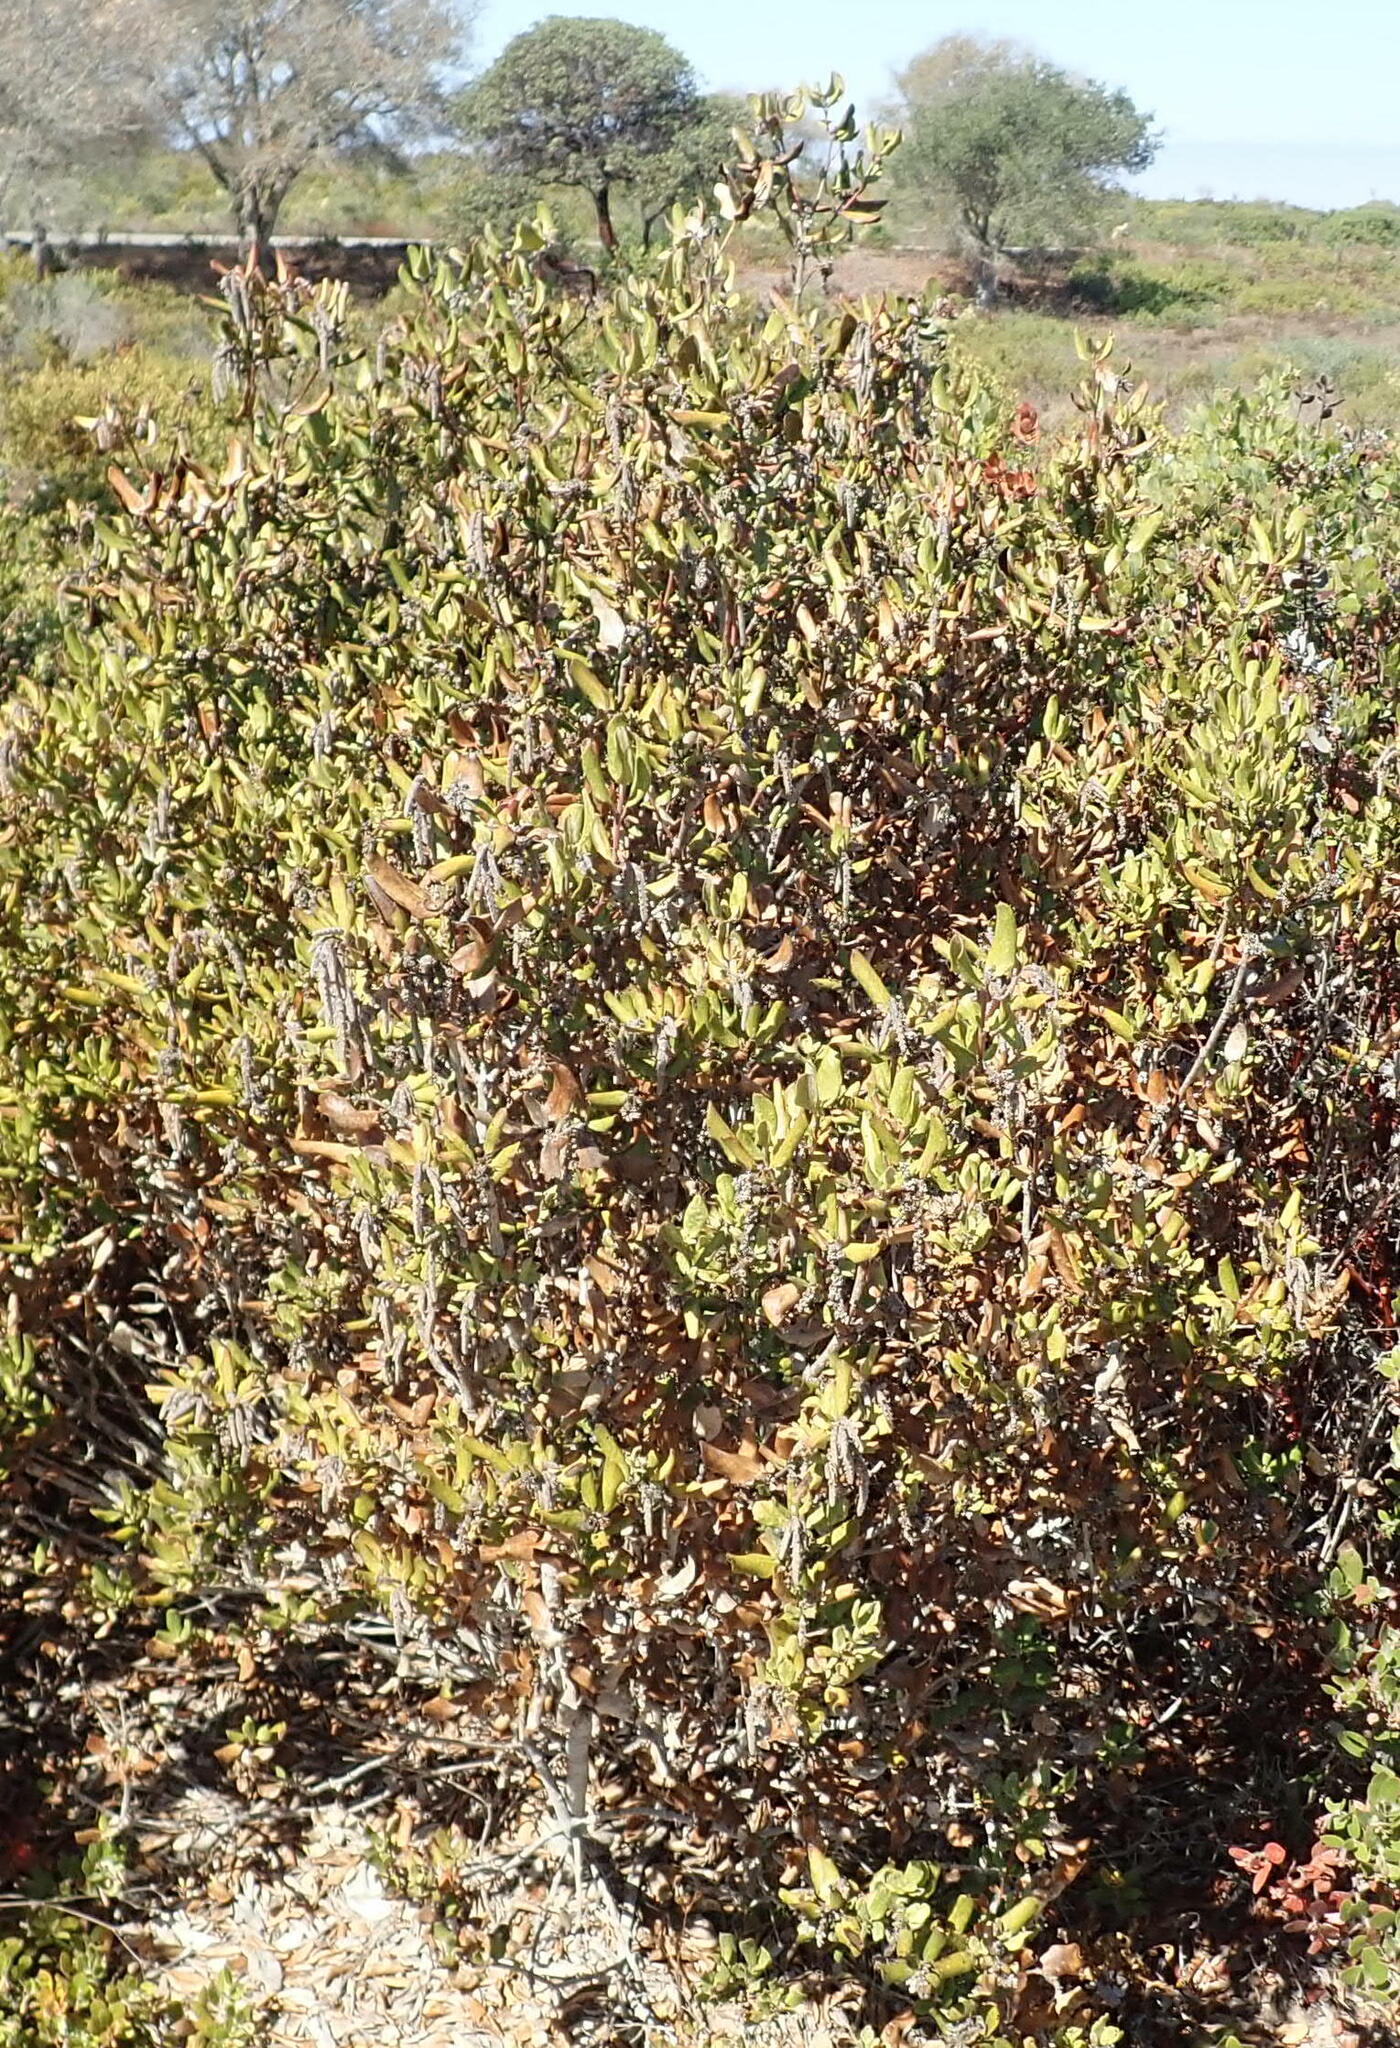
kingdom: Plantae
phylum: Tracheophyta
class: Magnoliopsida
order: Garryales
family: Garryaceae
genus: Garrya
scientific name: Garrya elliptica
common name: Silk-tassel
